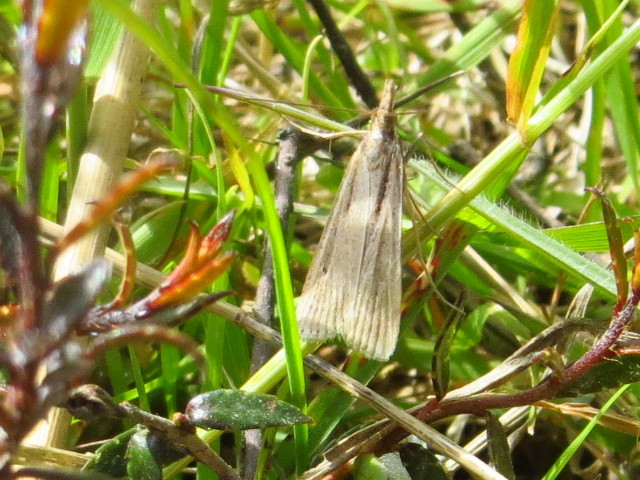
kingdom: Animalia
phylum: Arthropoda
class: Insecta
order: Lepidoptera
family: Crambidae
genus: Eudonia
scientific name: Eudonia sabulosella
